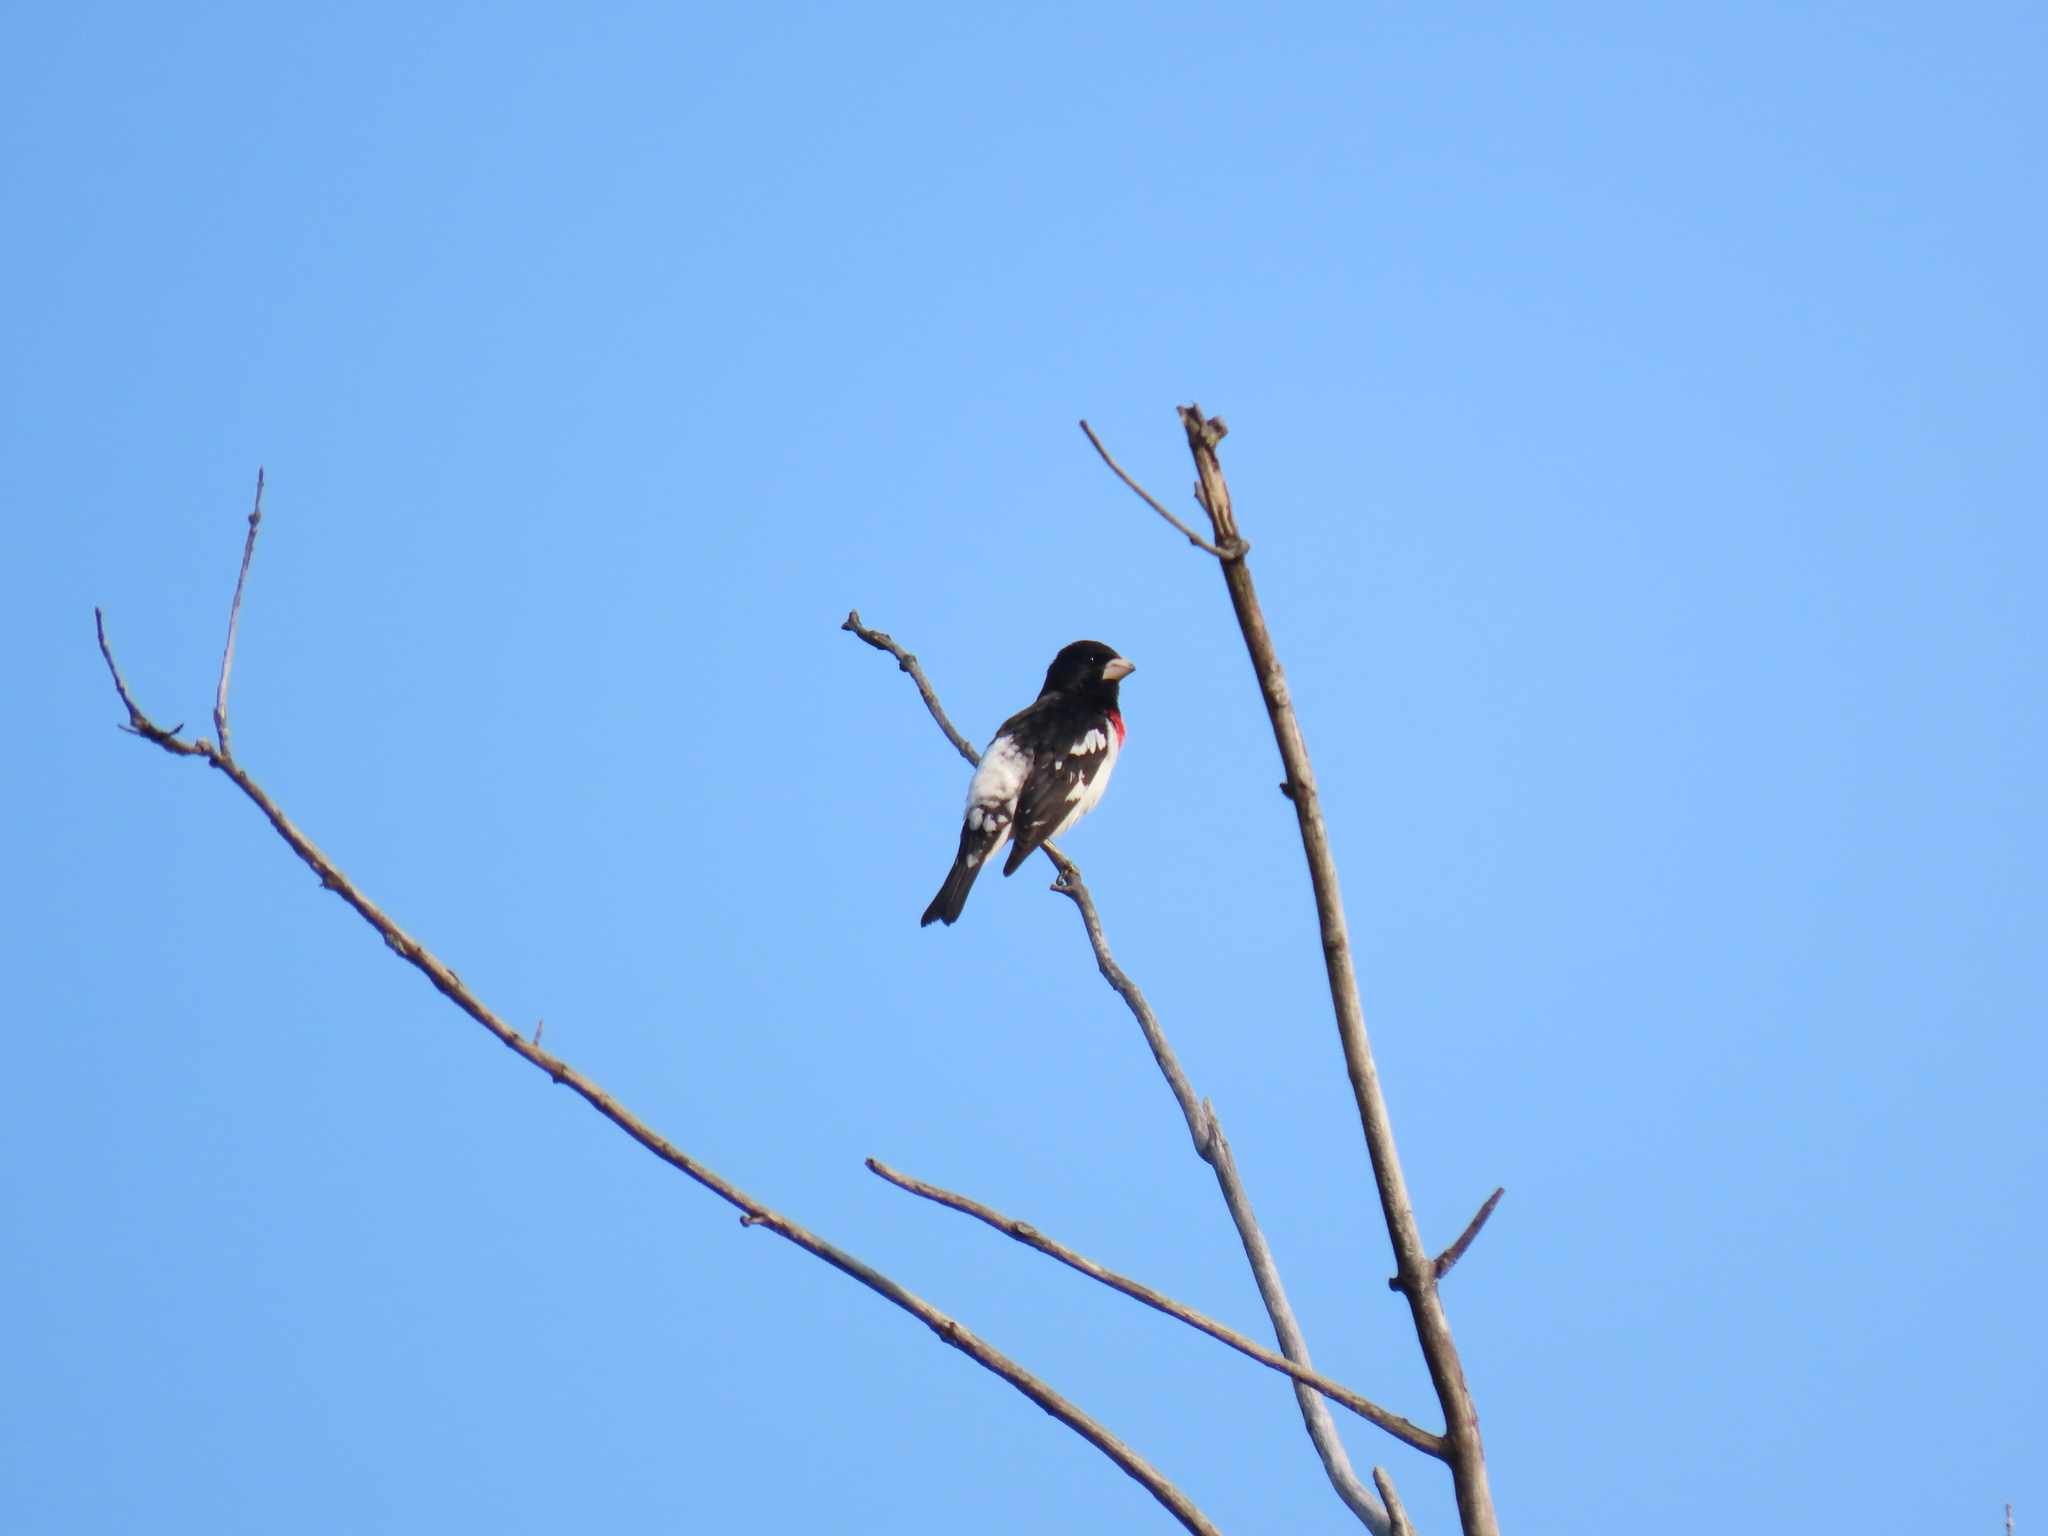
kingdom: Animalia
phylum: Chordata
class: Aves
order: Passeriformes
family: Cardinalidae
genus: Pheucticus
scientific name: Pheucticus ludovicianus
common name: Rose-breasted grosbeak
